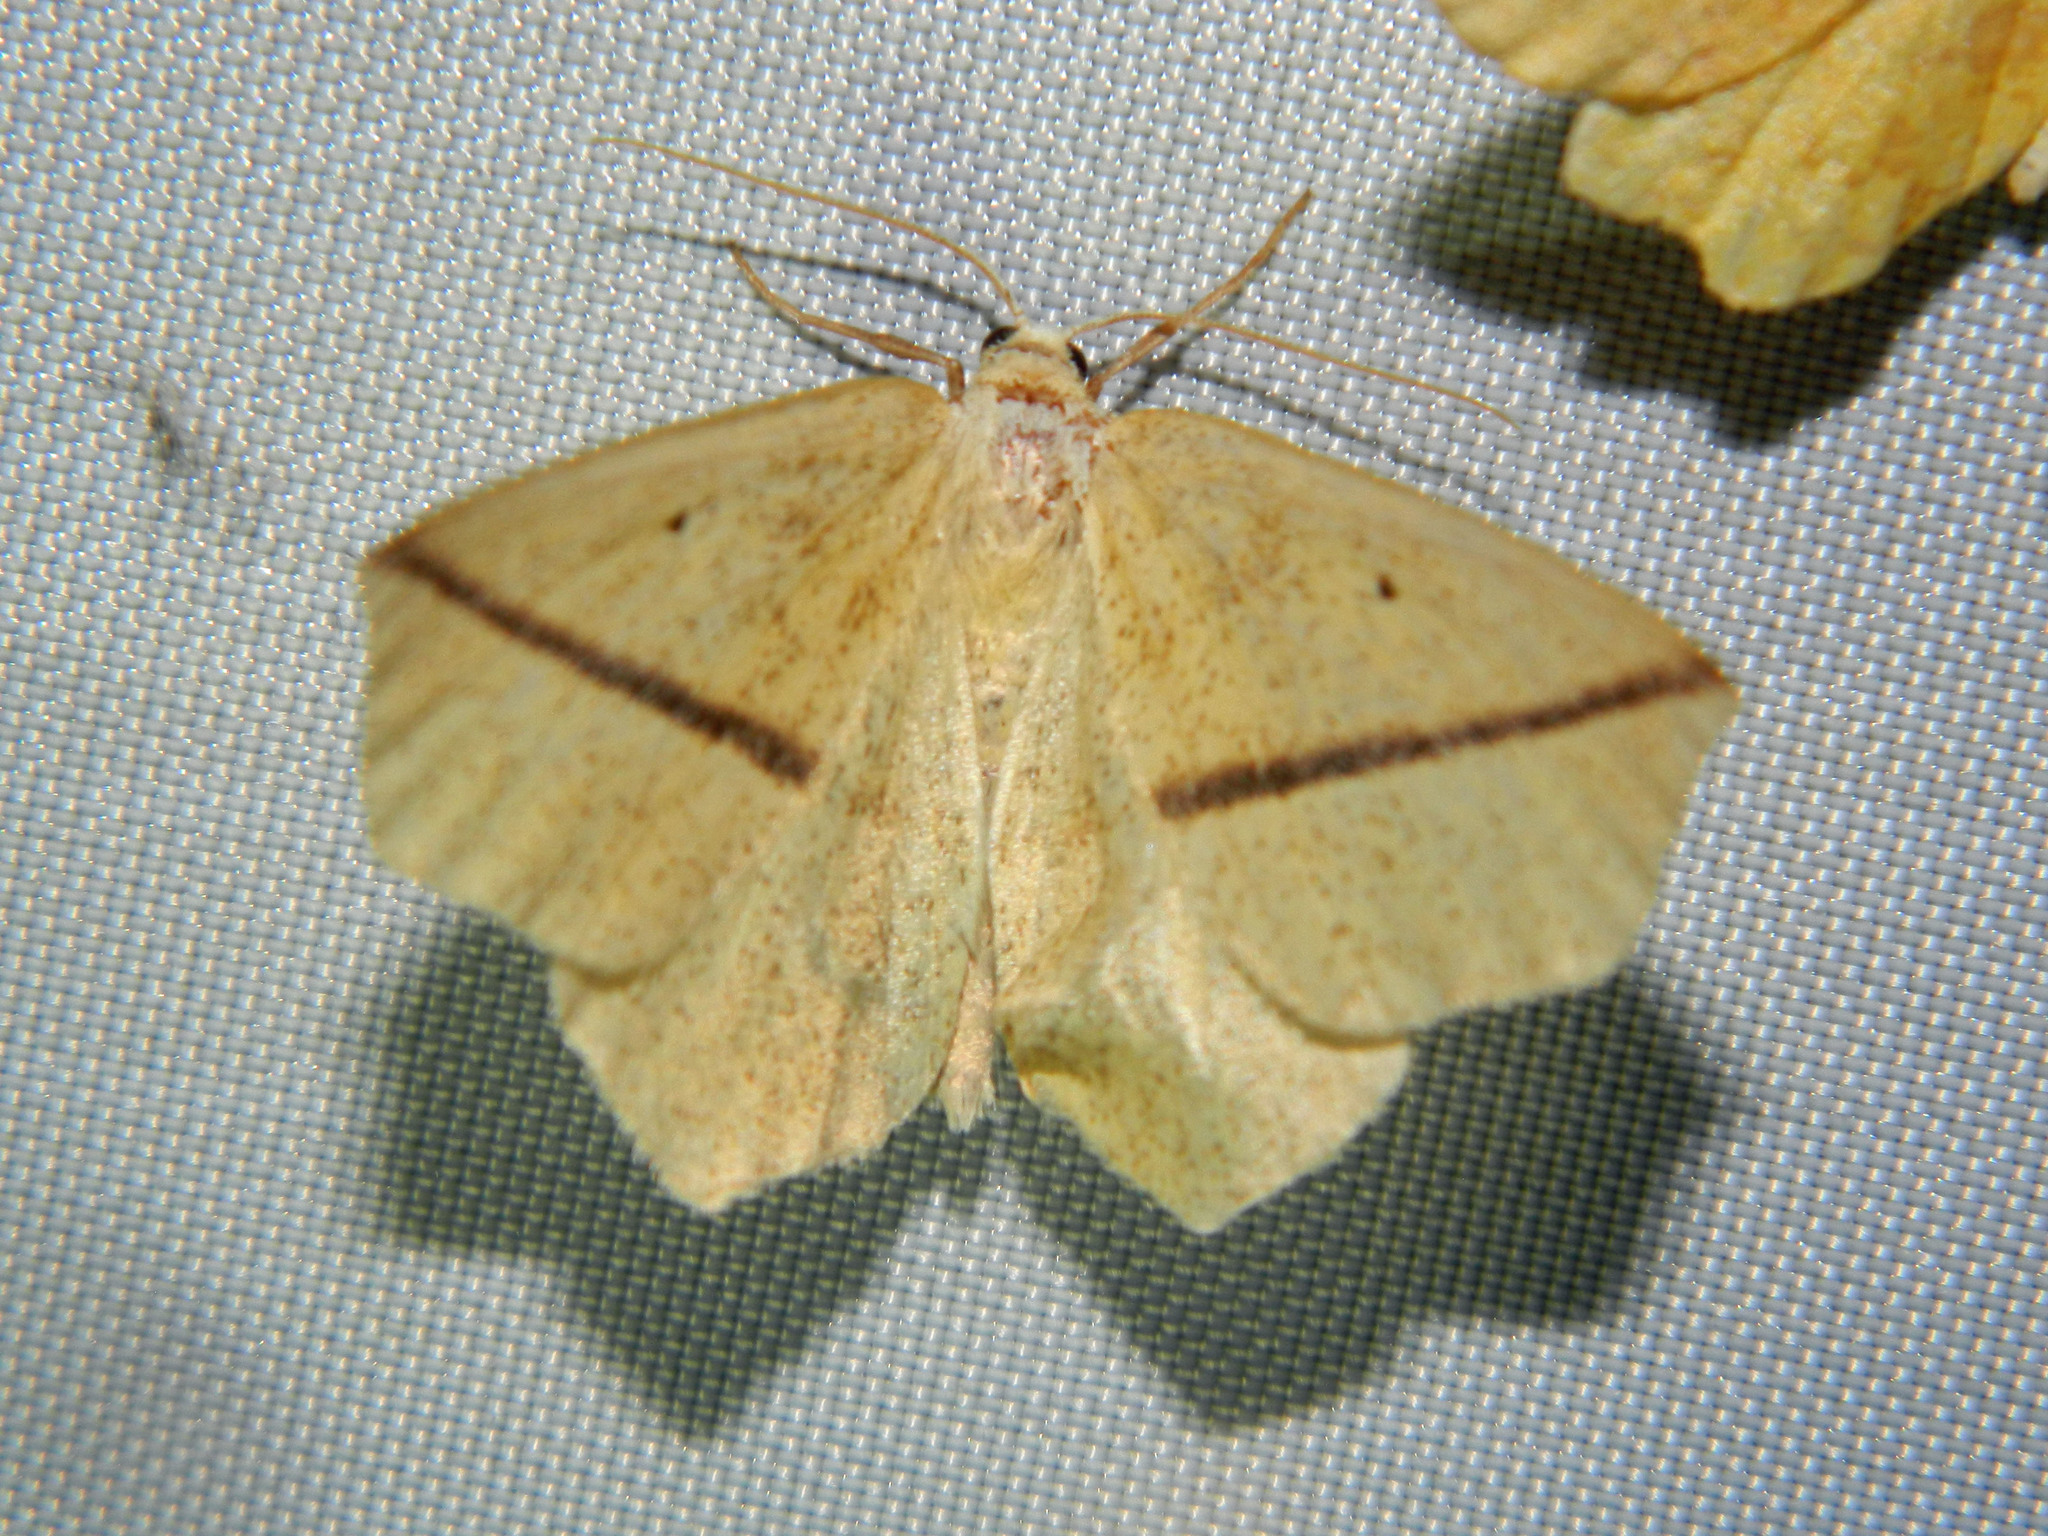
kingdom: Animalia
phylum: Arthropoda
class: Insecta
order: Lepidoptera
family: Geometridae
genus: Tetracis
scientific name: Tetracis crocallata
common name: Yellow slant-line
